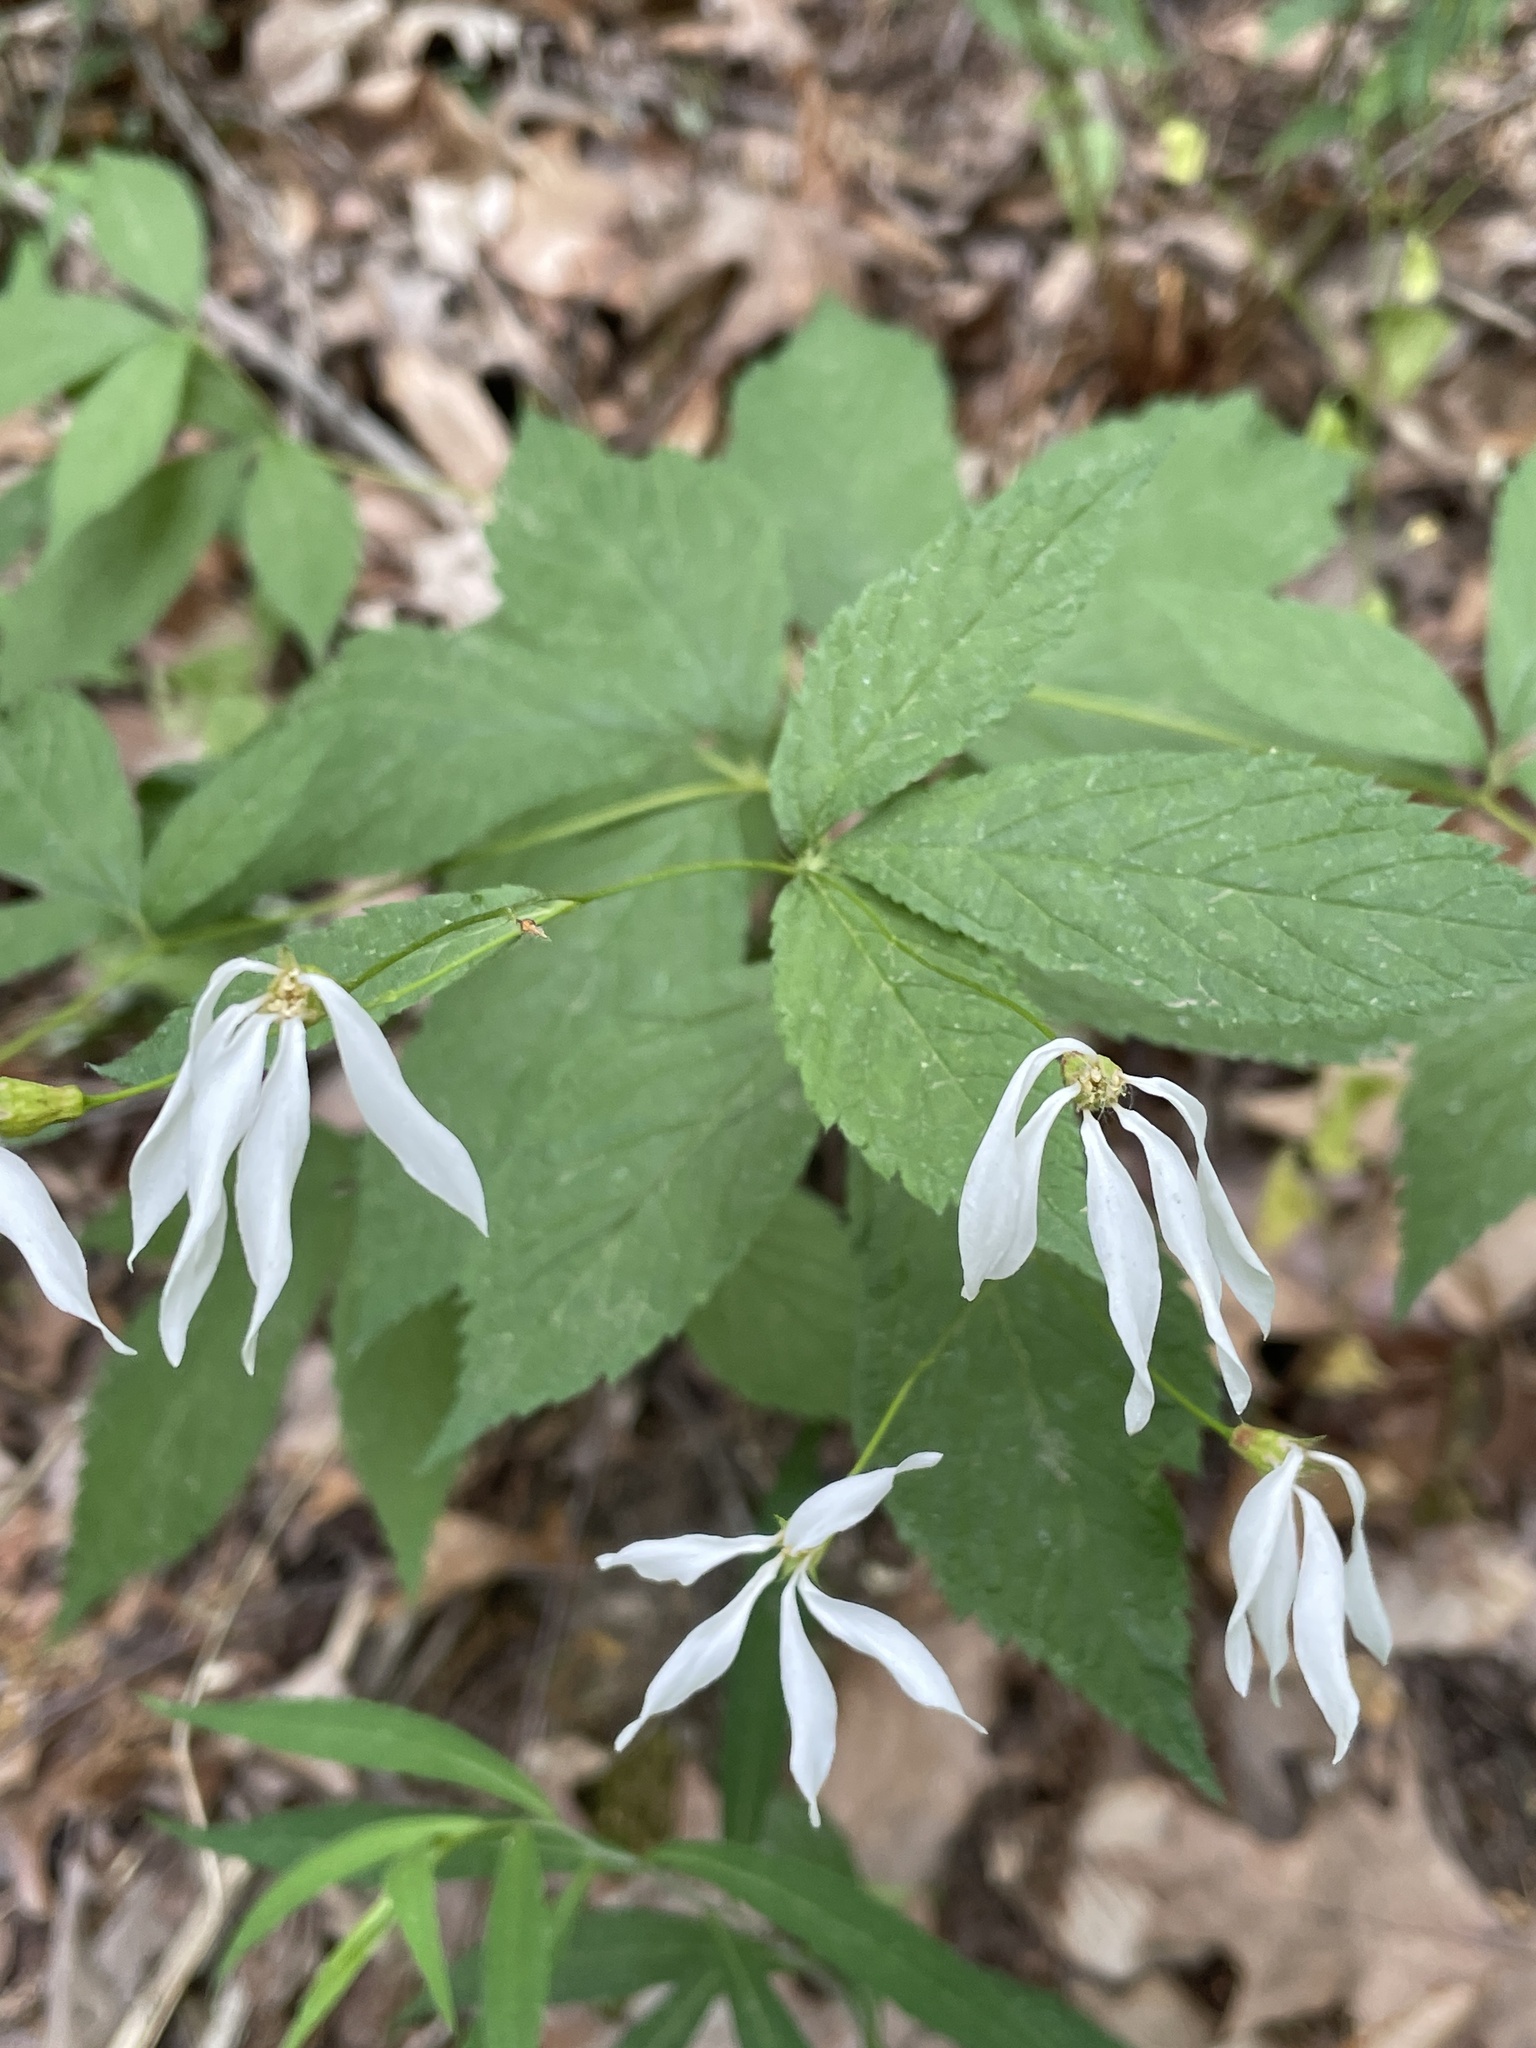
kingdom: Plantae
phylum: Tracheophyta
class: Magnoliopsida
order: Rosales
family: Rosaceae
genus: Gillenia
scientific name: Gillenia trifoliata
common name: Bowman's-root
